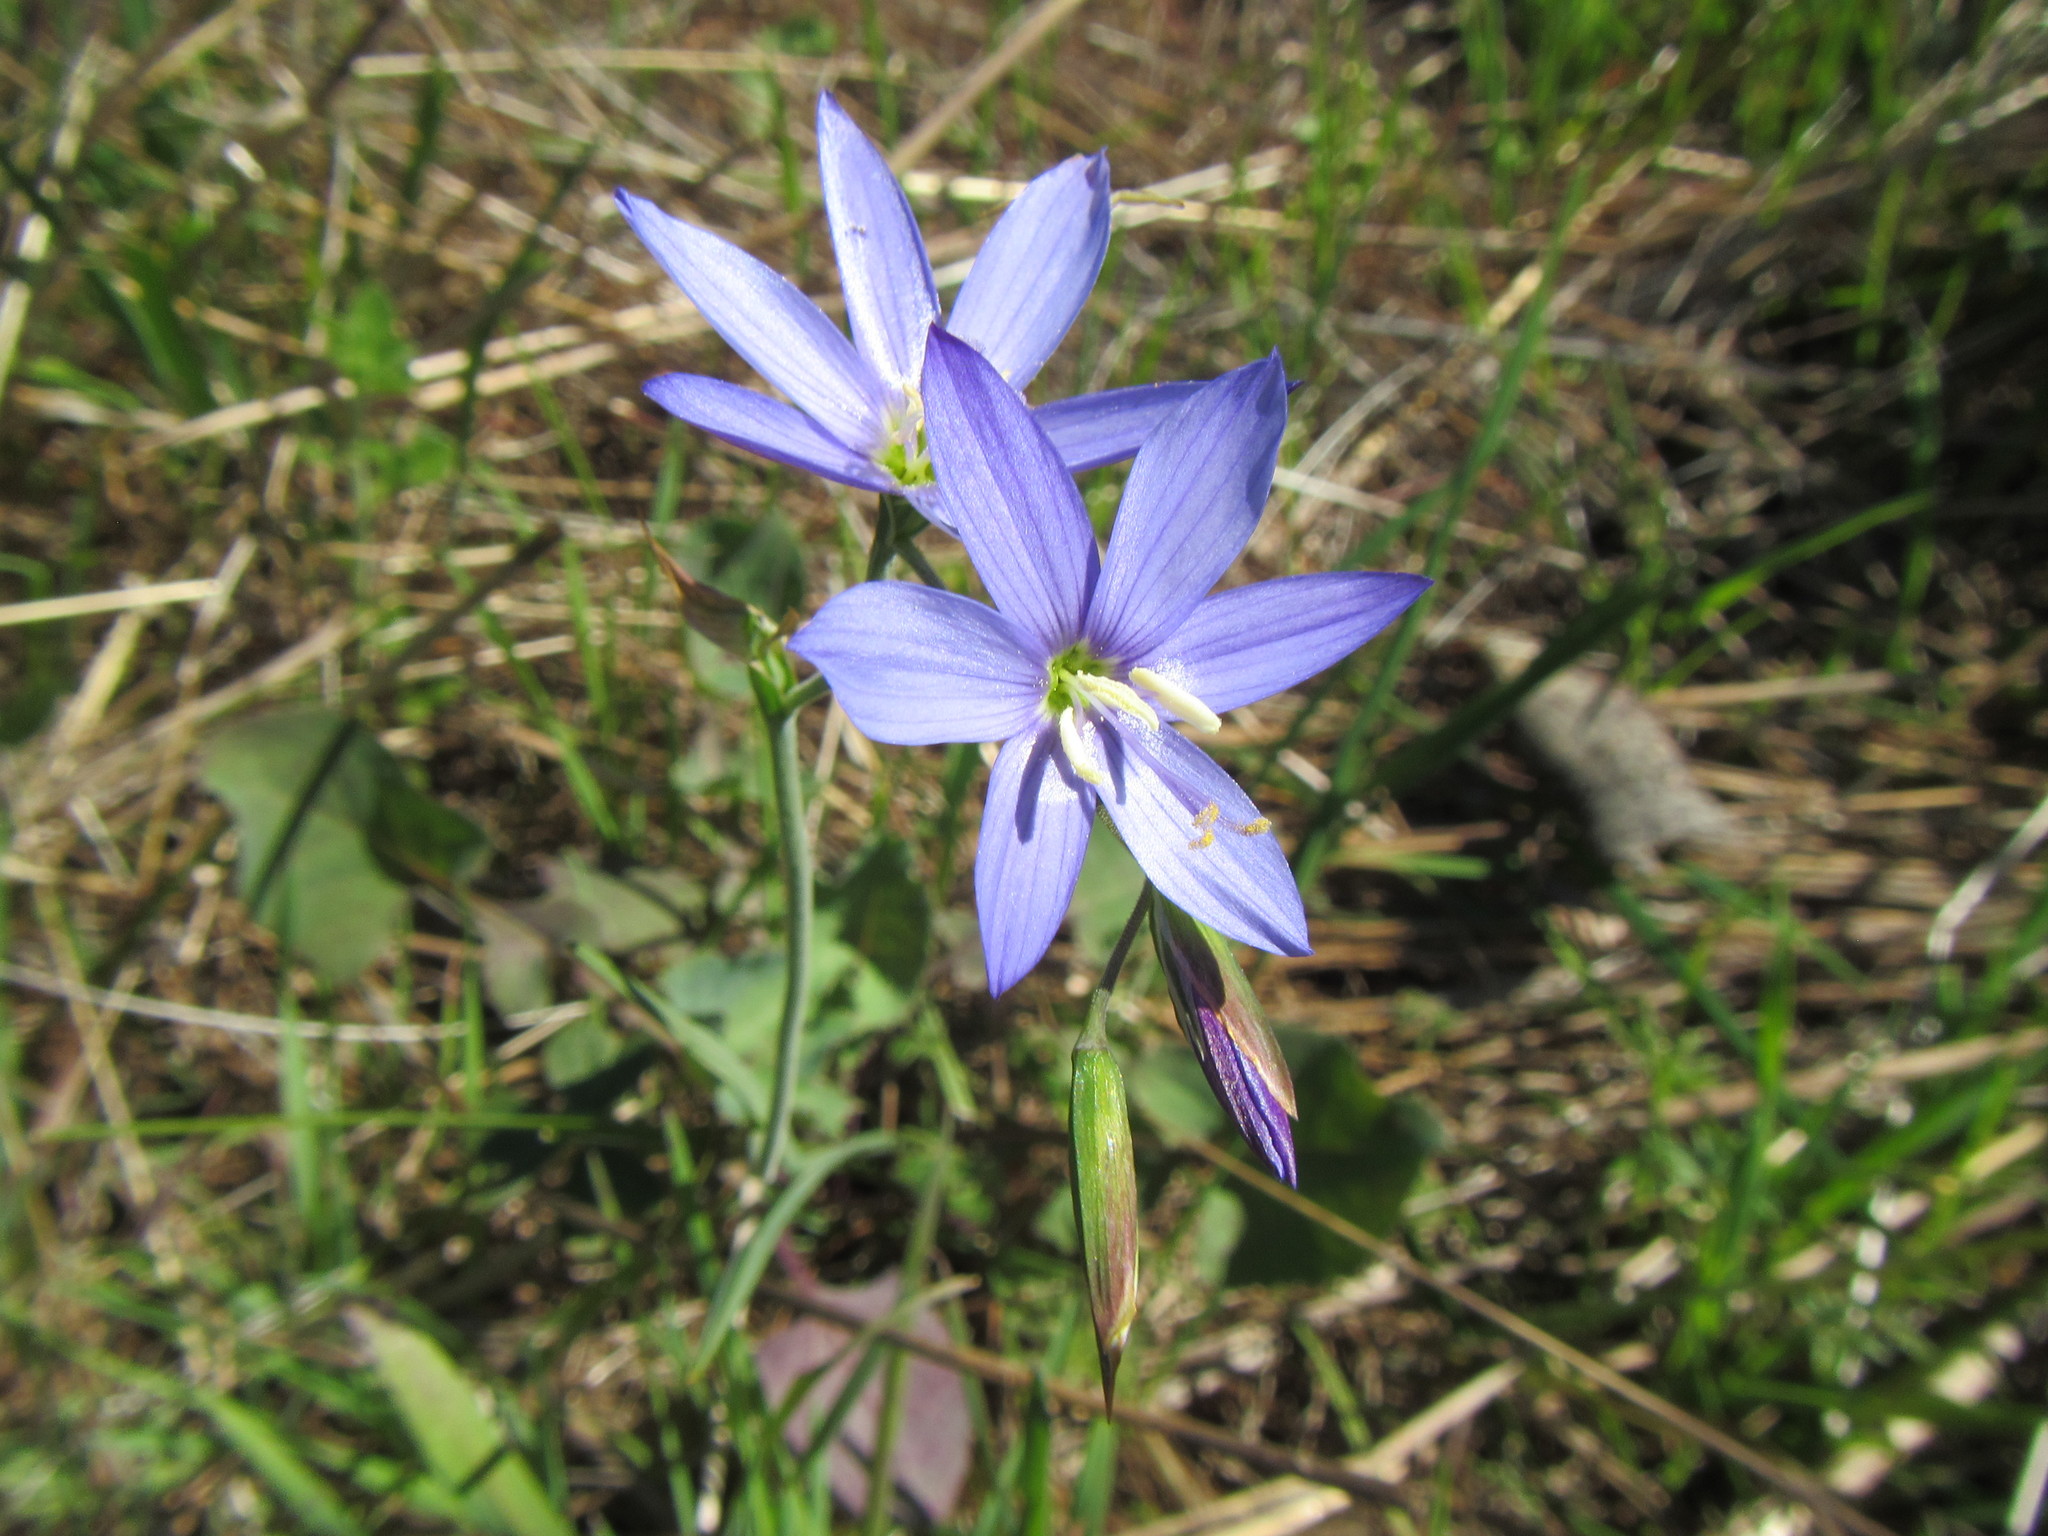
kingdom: Plantae
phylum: Tracheophyta
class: Liliopsida
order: Asparagales
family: Iridaceae
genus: Geissorhiza
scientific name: Geissorhiza aspera
